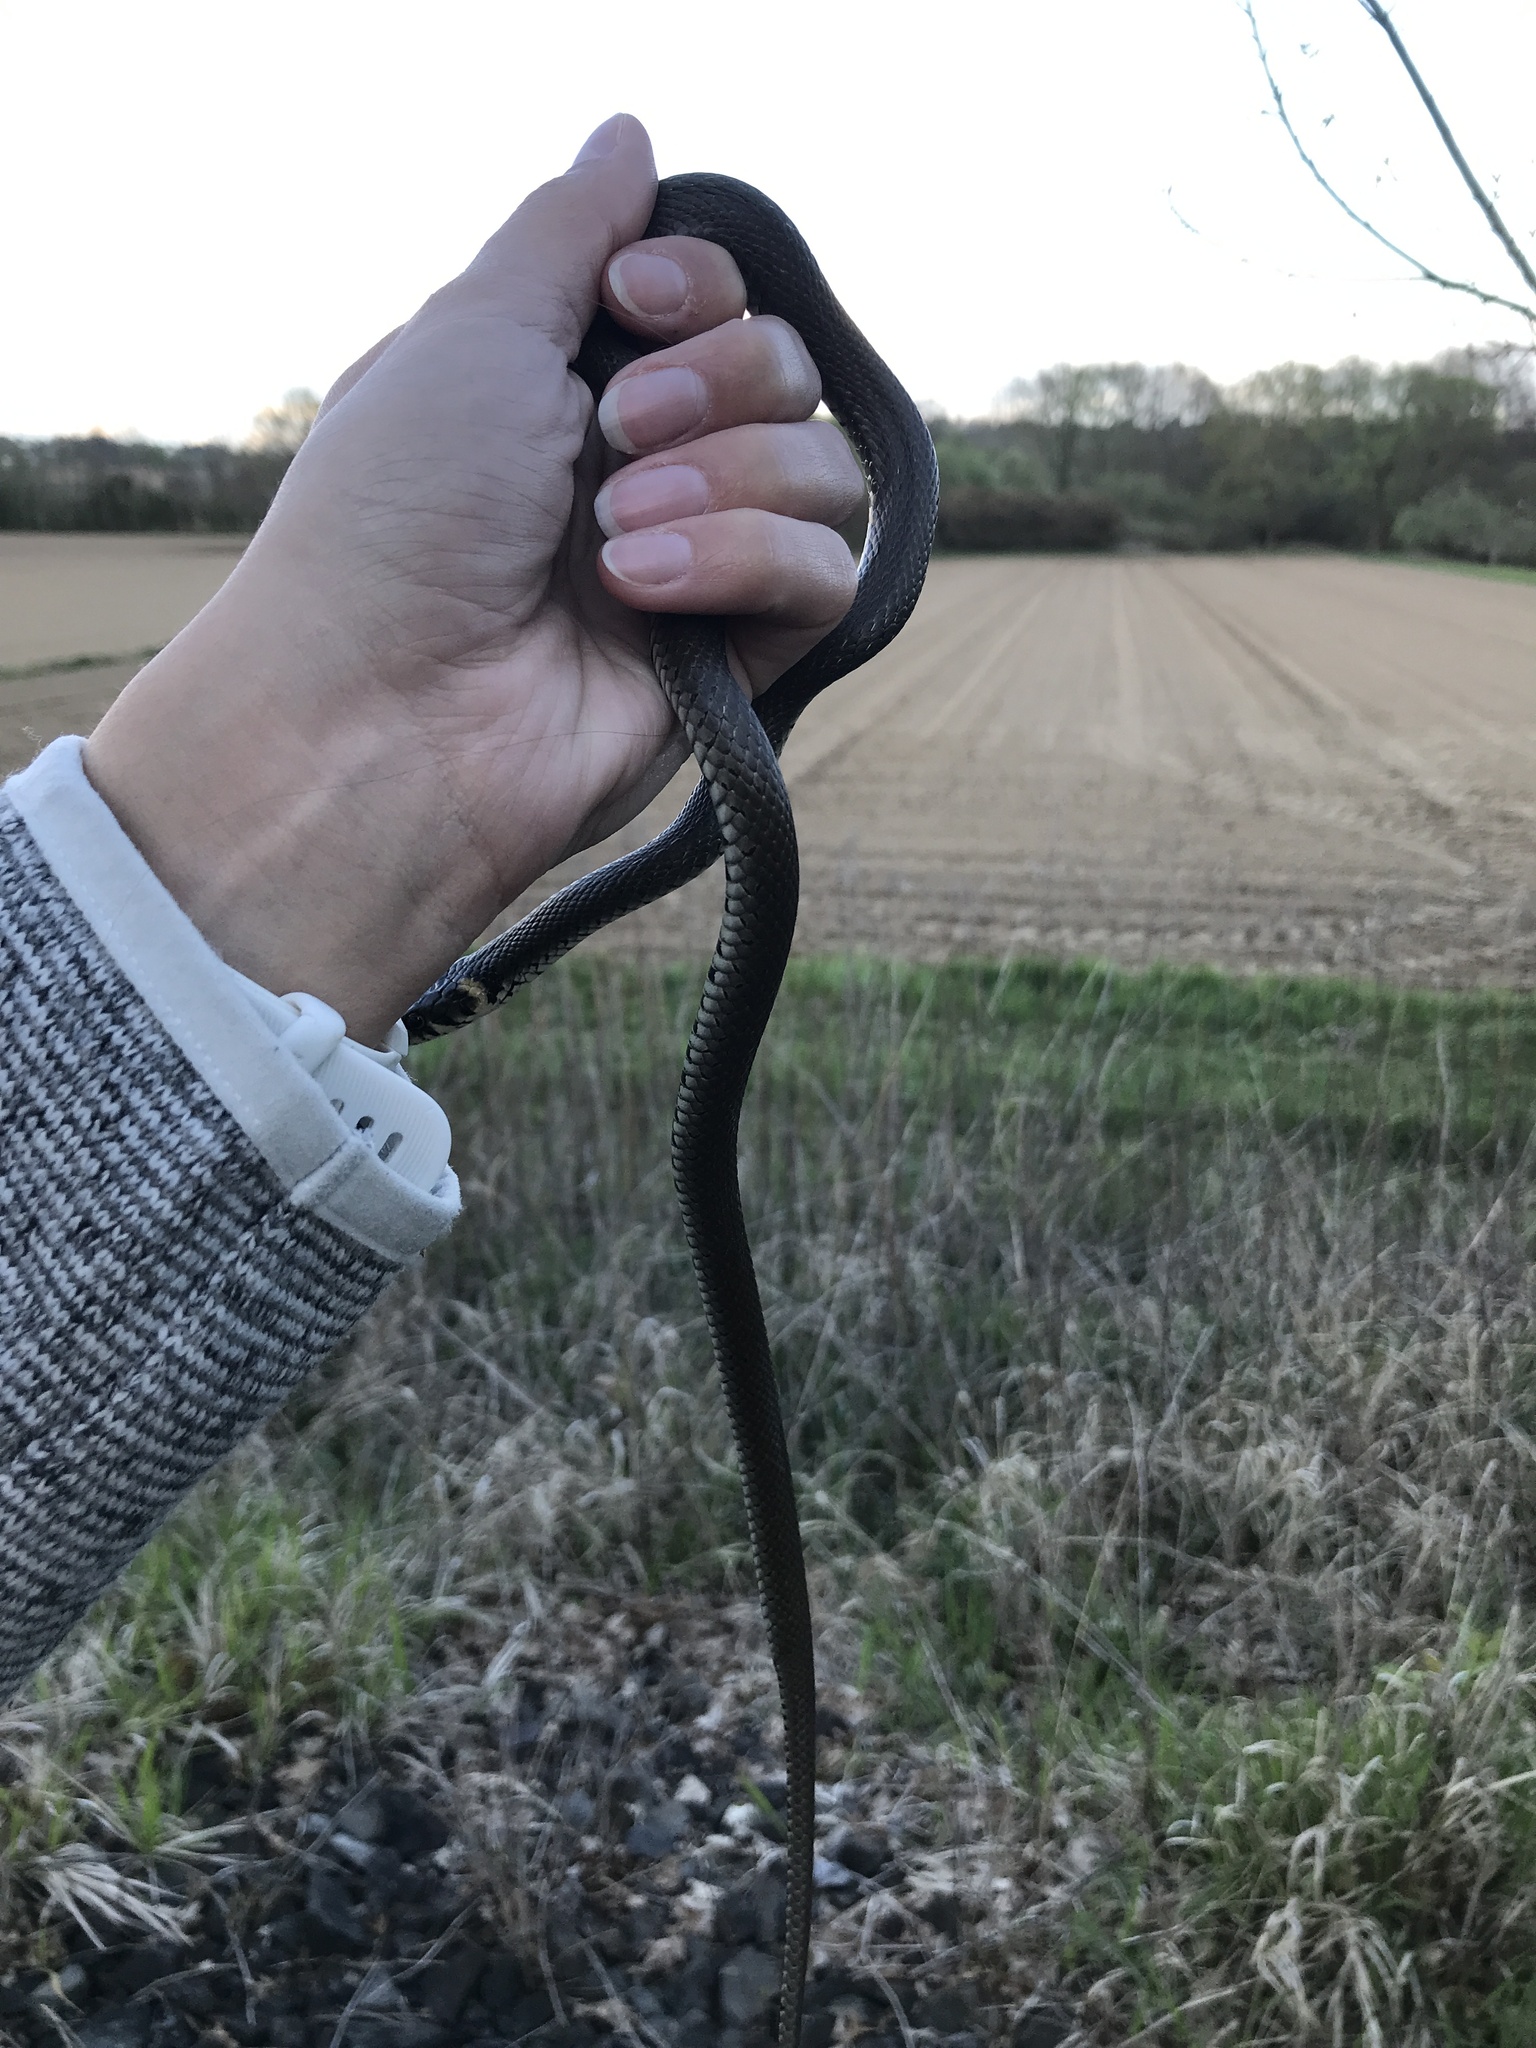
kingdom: Animalia
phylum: Chordata
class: Squamata
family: Colubridae
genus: Natrix
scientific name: Natrix natrix
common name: Grass snake
